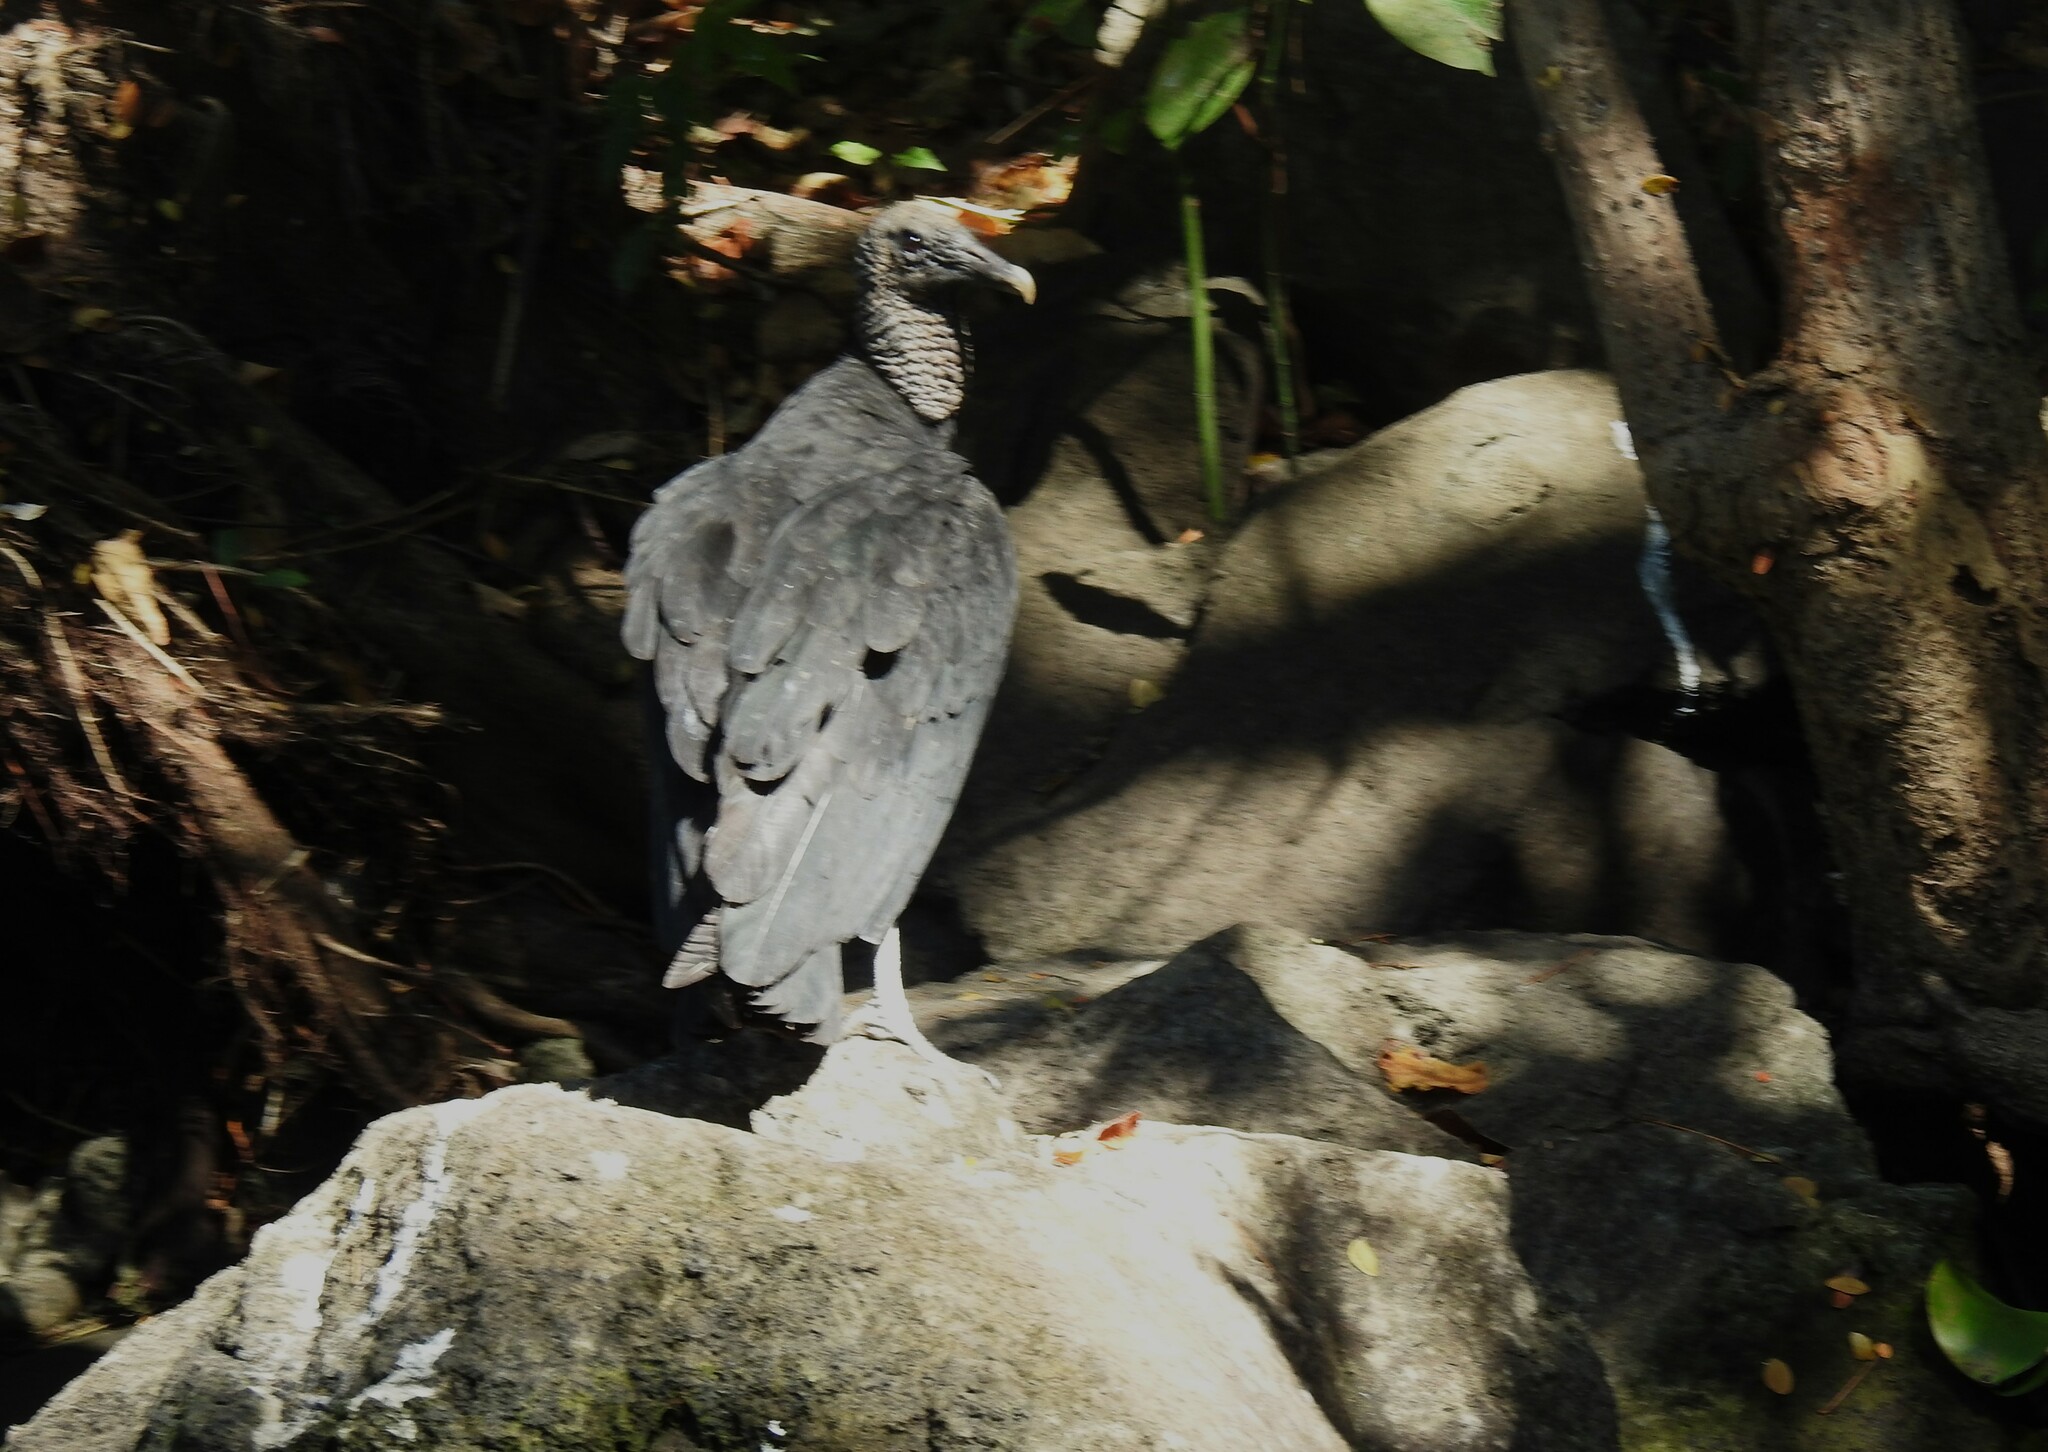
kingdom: Animalia
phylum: Chordata
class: Aves
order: Accipitriformes
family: Cathartidae
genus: Coragyps
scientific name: Coragyps atratus
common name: Black vulture
